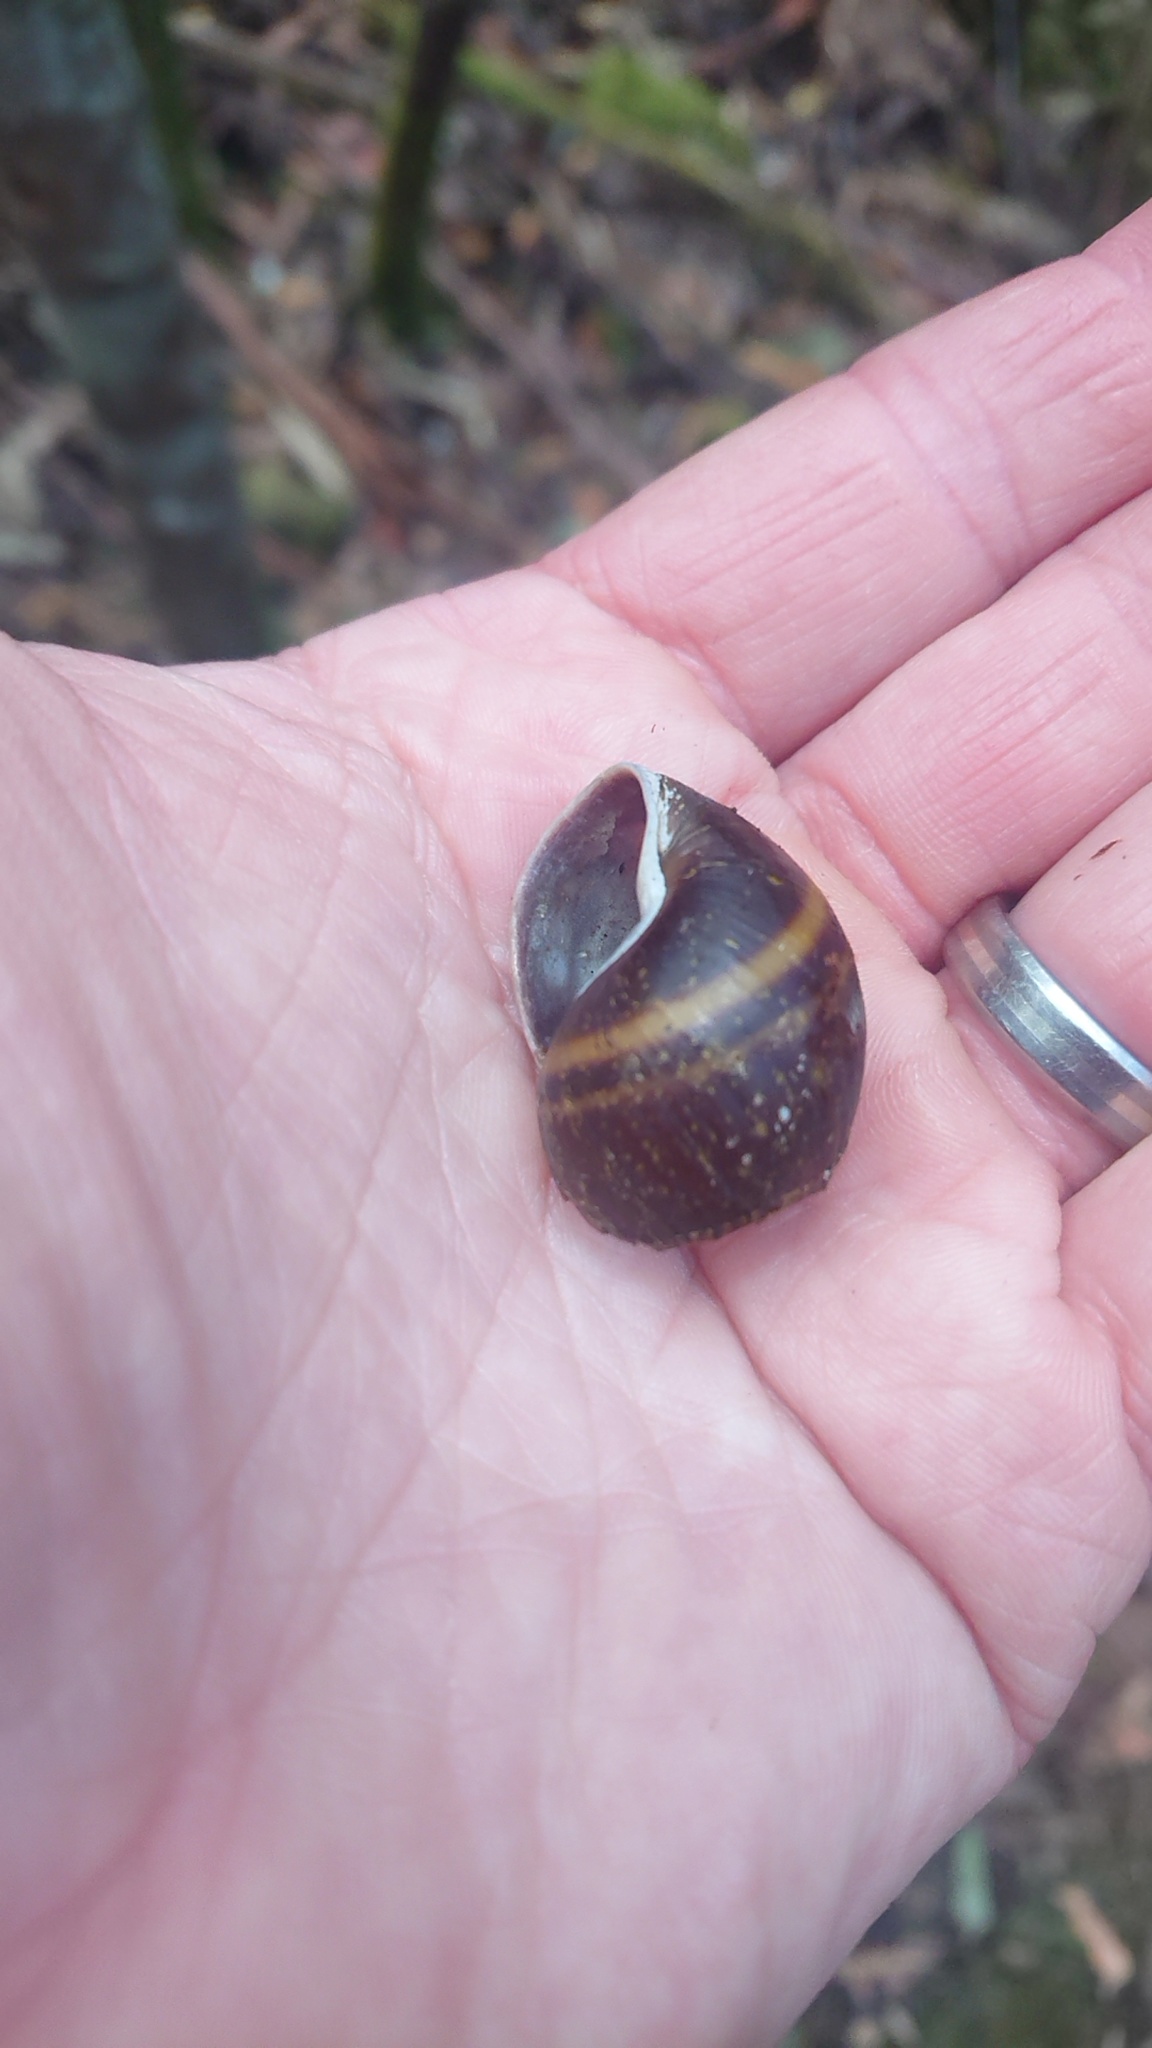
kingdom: Animalia
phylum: Mollusca
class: Gastropoda
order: Stylommatophora
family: Caryodidae
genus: Caryodes
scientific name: Caryodes dufresnii
